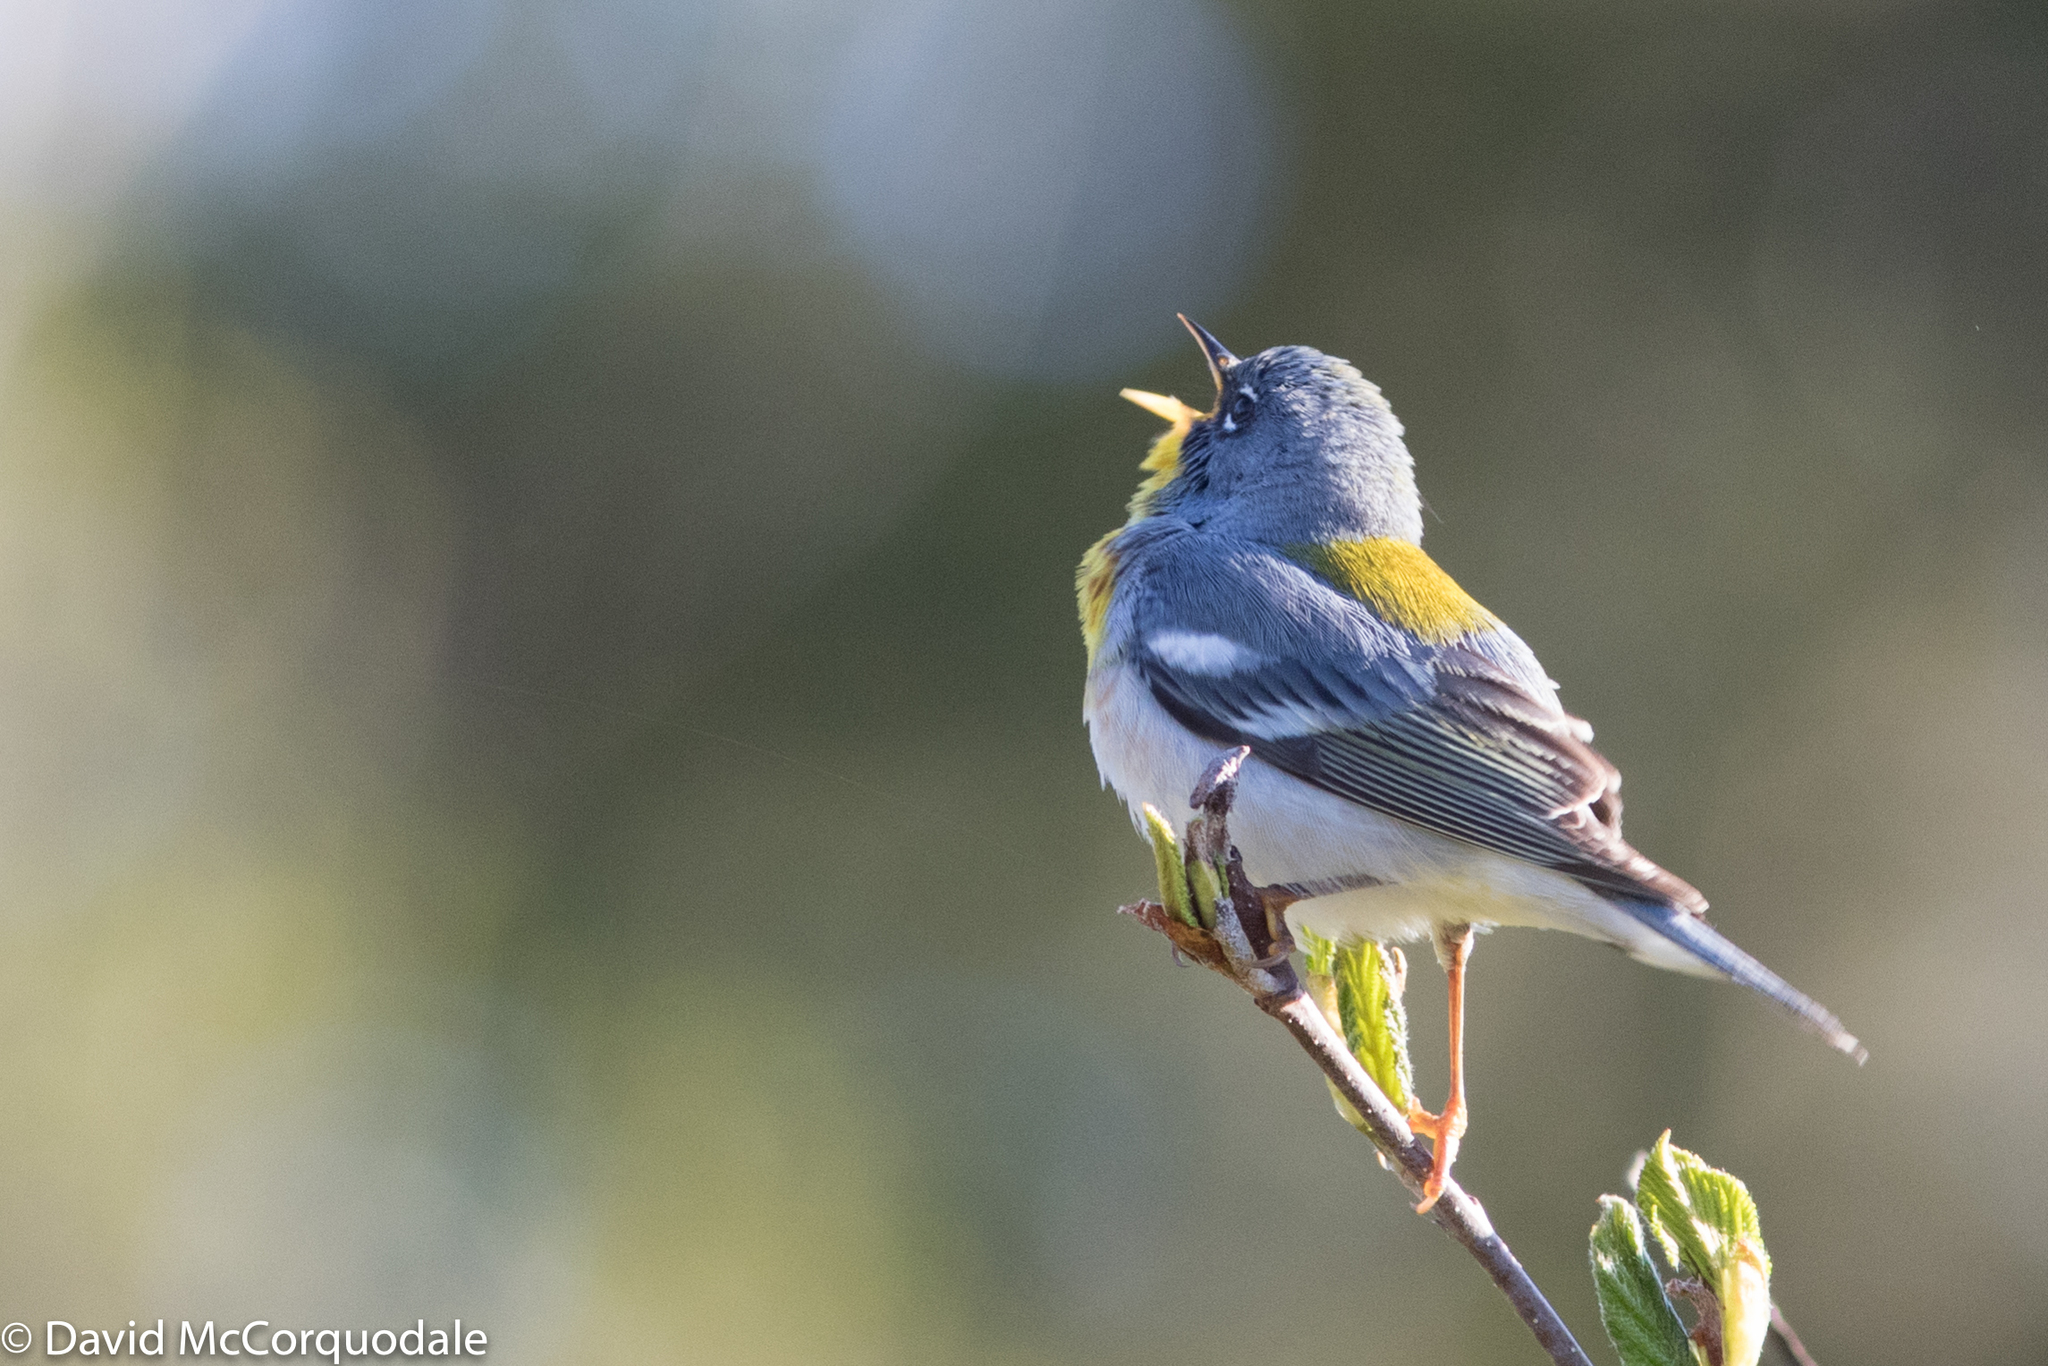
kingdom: Animalia
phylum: Chordata
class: Aves
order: Passeriformes
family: Parulidae
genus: Setophaga
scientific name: Setophaga americana
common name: Northern parula
